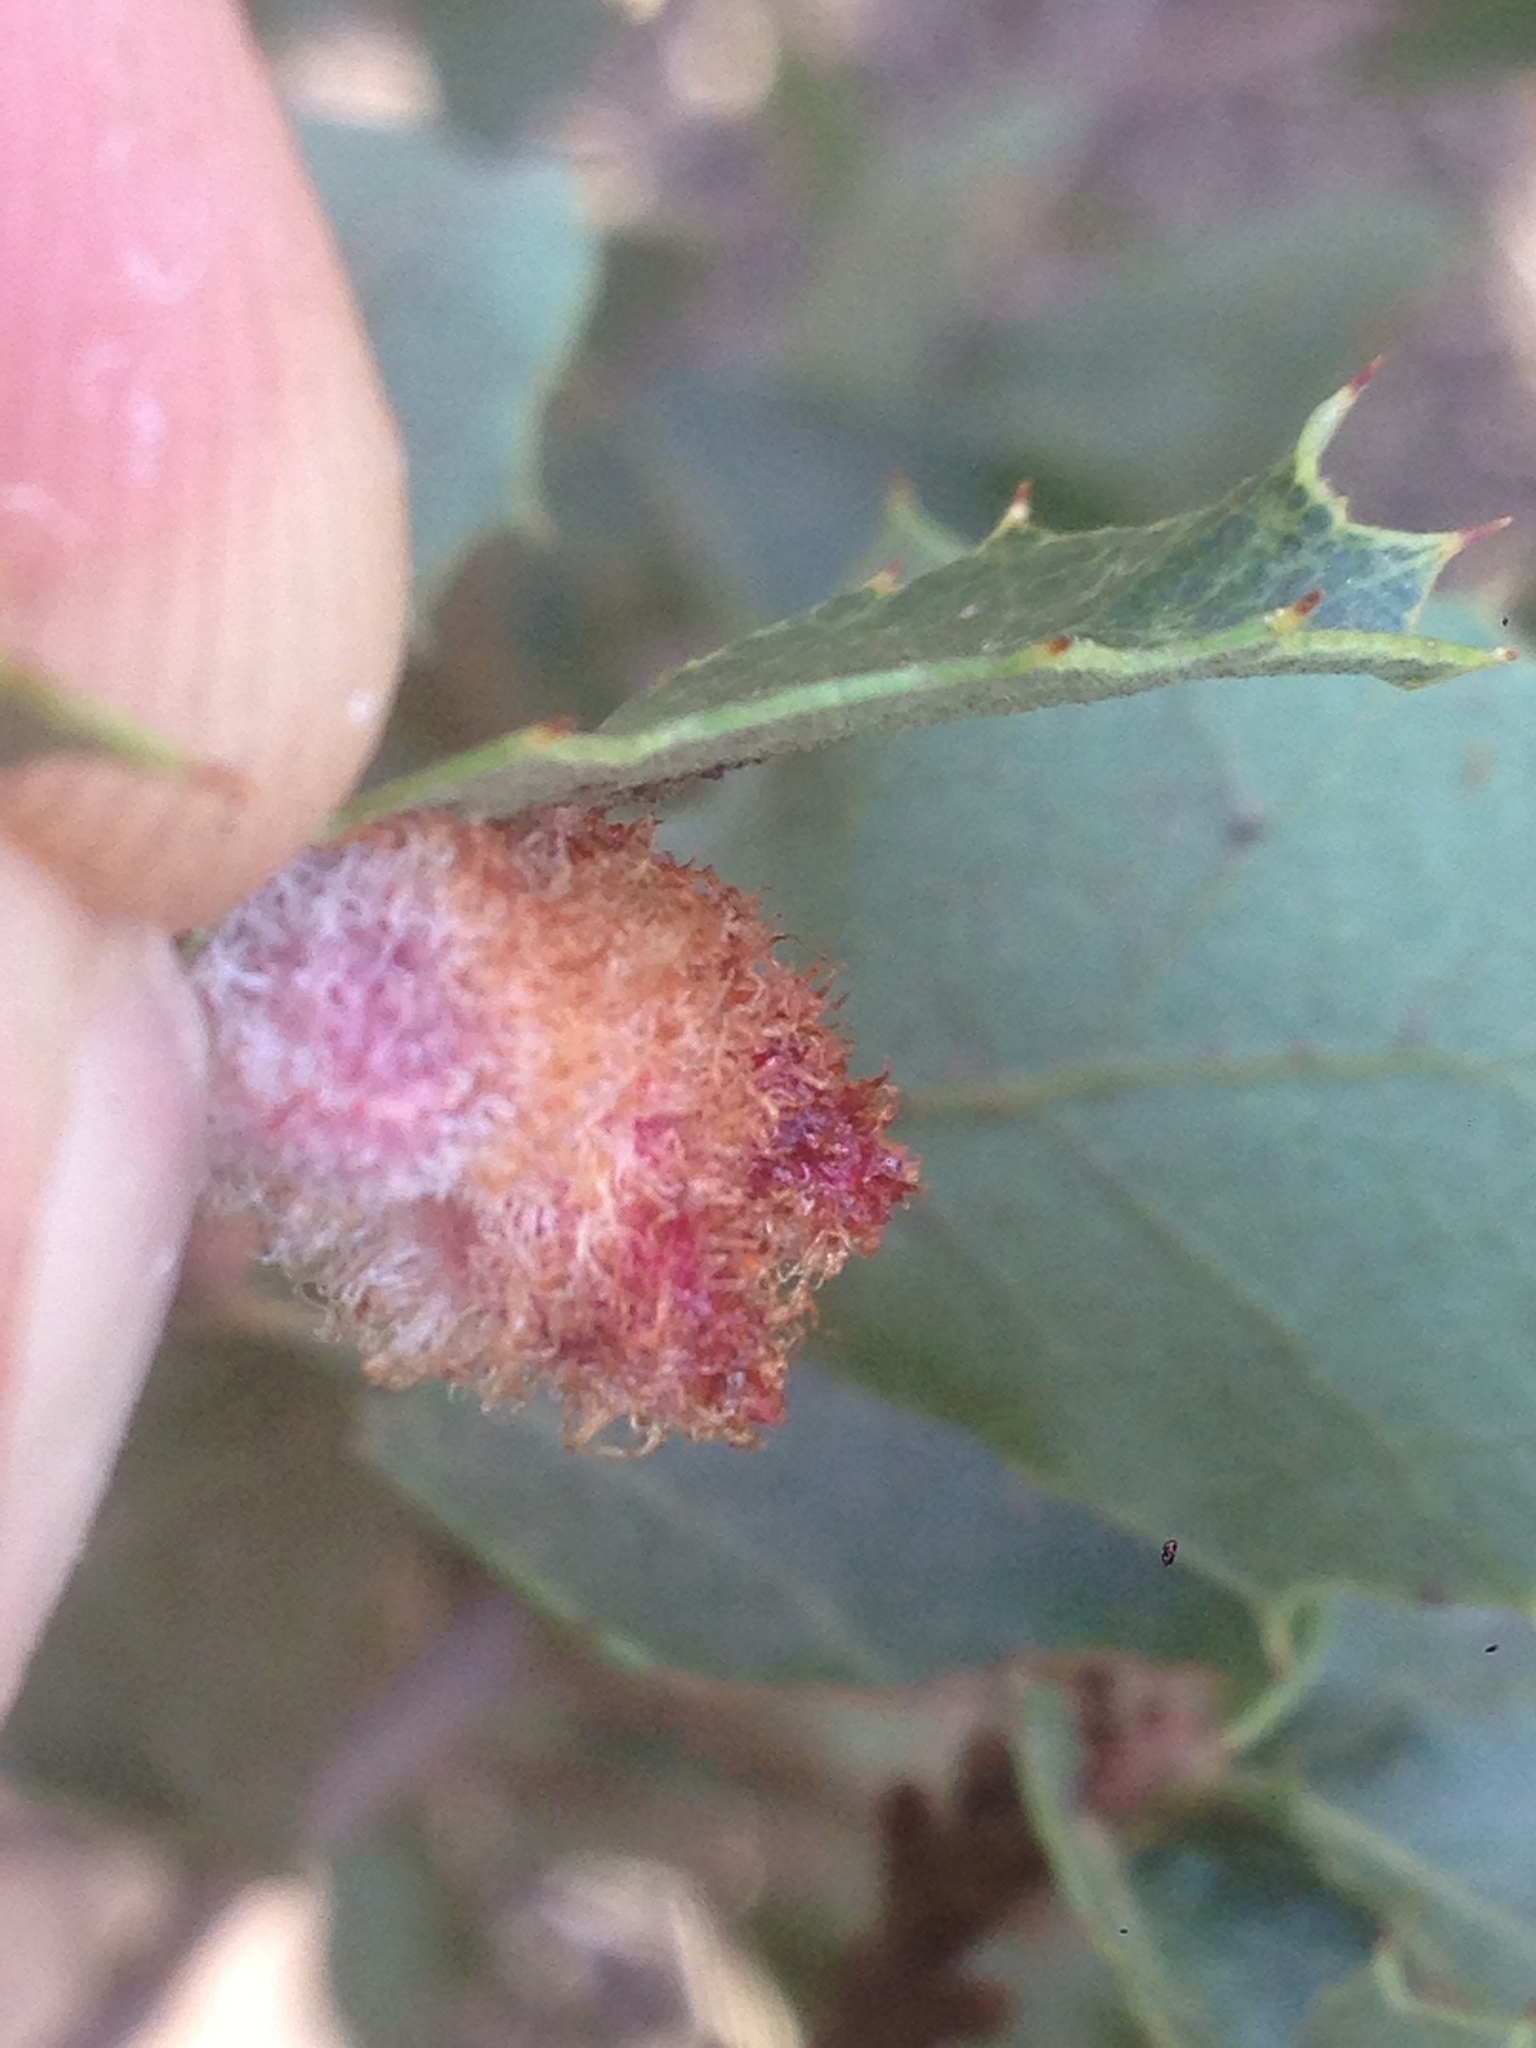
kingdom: Animalia
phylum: Arthropoda
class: Insecta
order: Hymenoptera
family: Cynipidae
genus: Andricus
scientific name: Andricus
